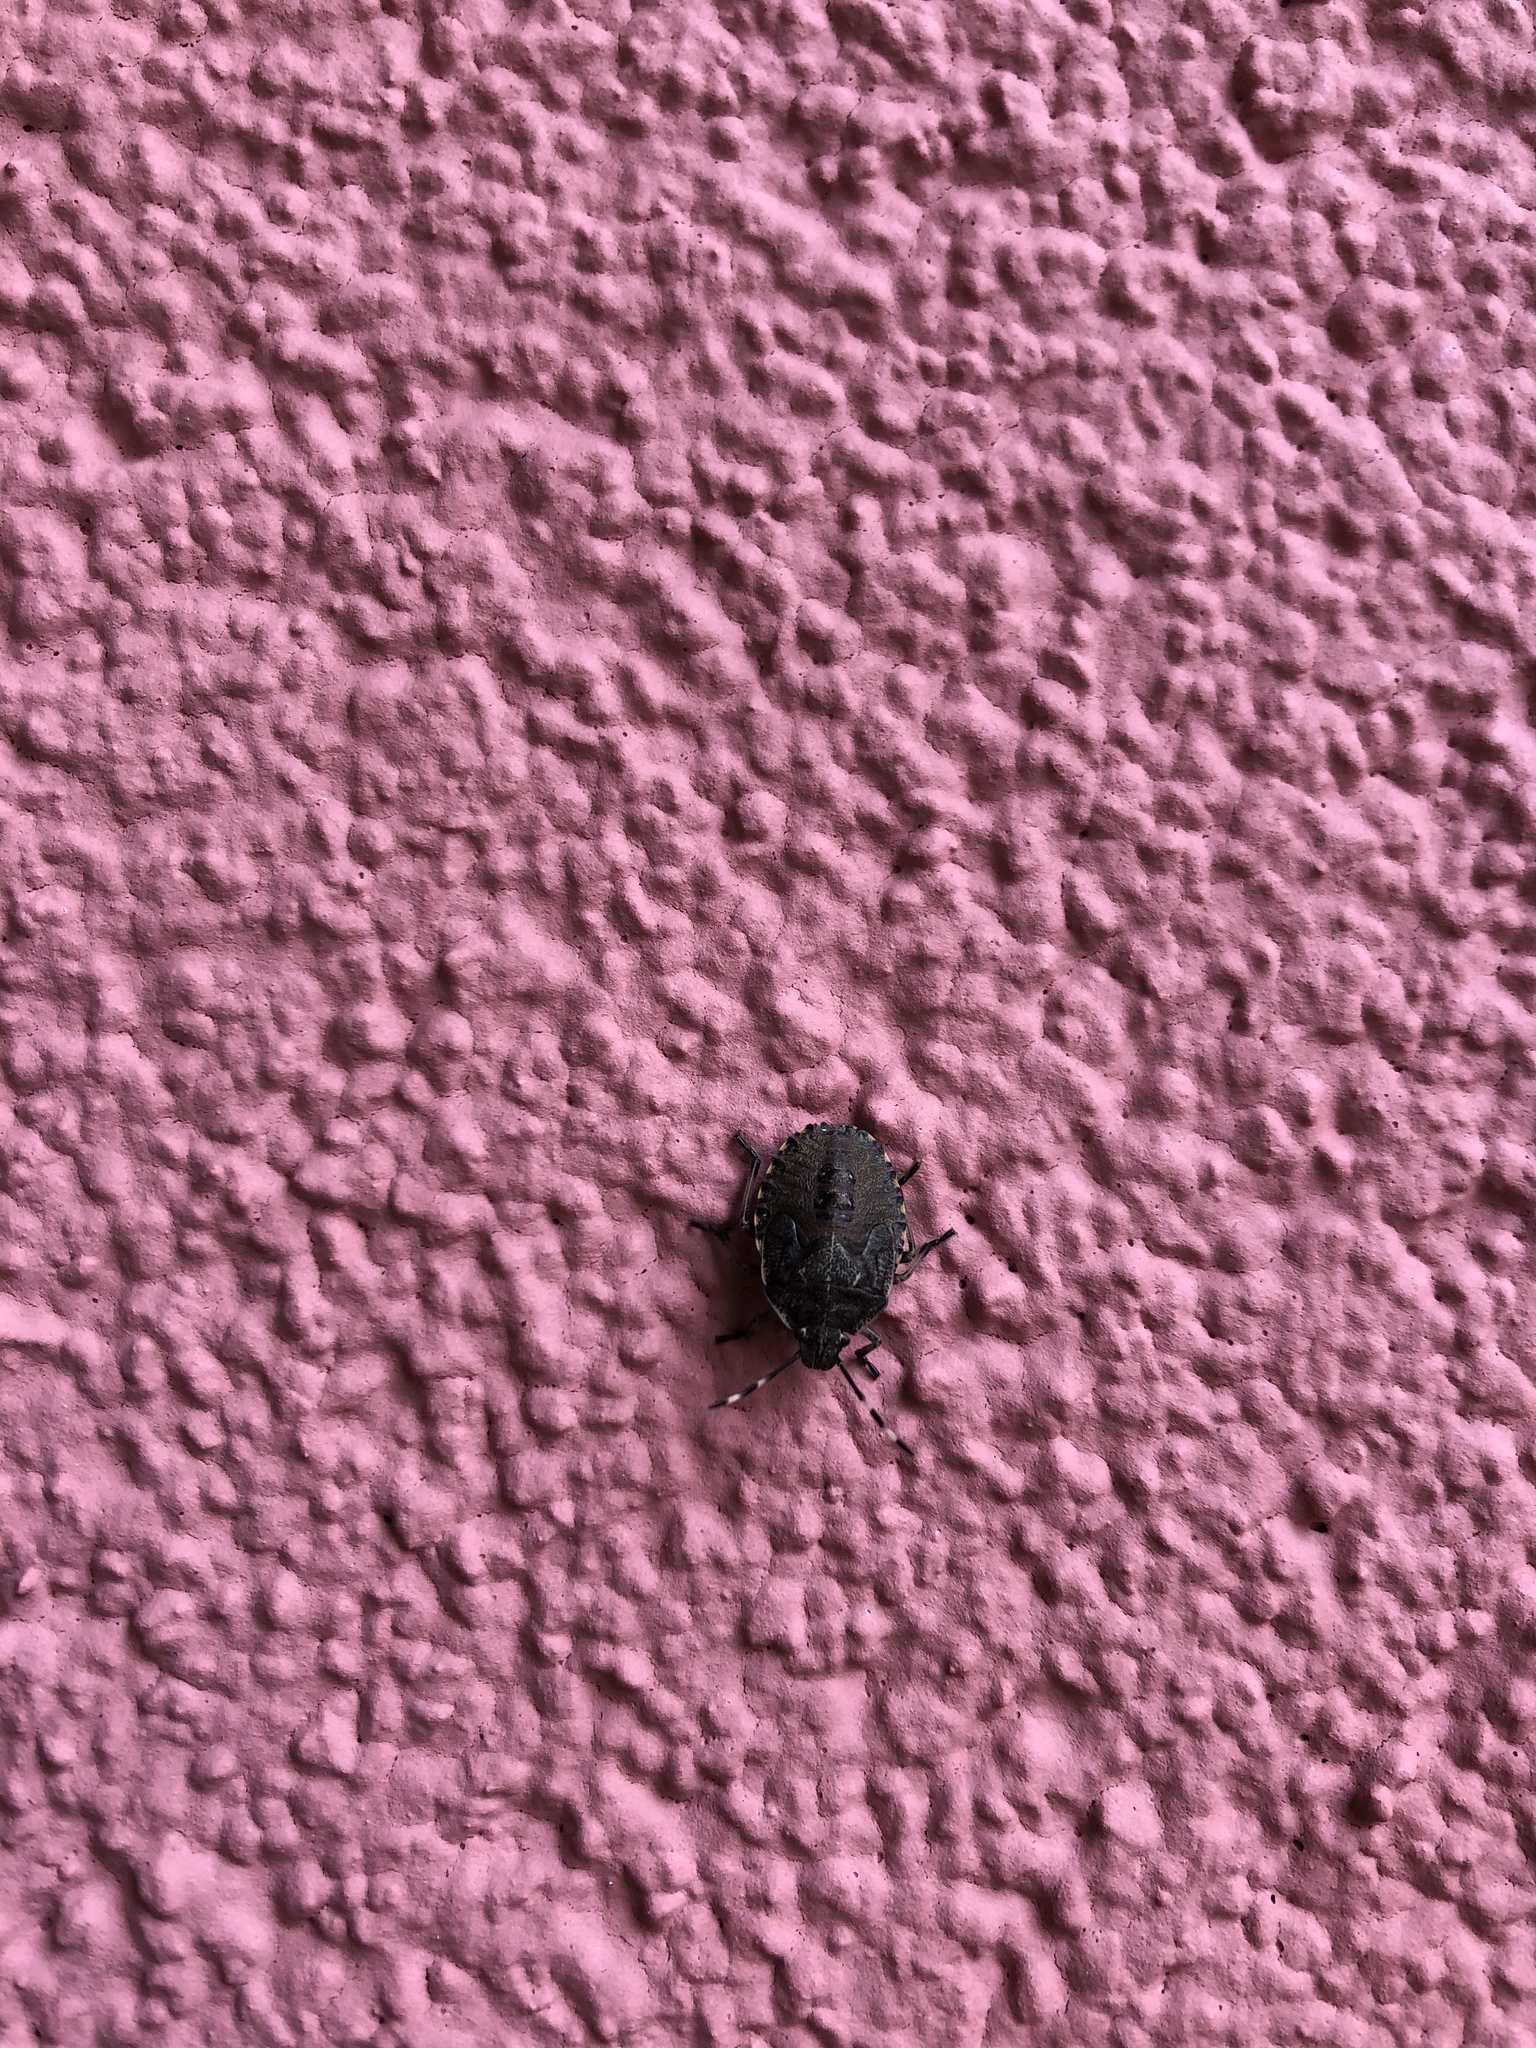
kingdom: Animalia
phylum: Arthropoda
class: Insecta
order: Hemiptera
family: Pentatomidae
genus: Rhaphigaster
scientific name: Rhaphigaster nebulosa
